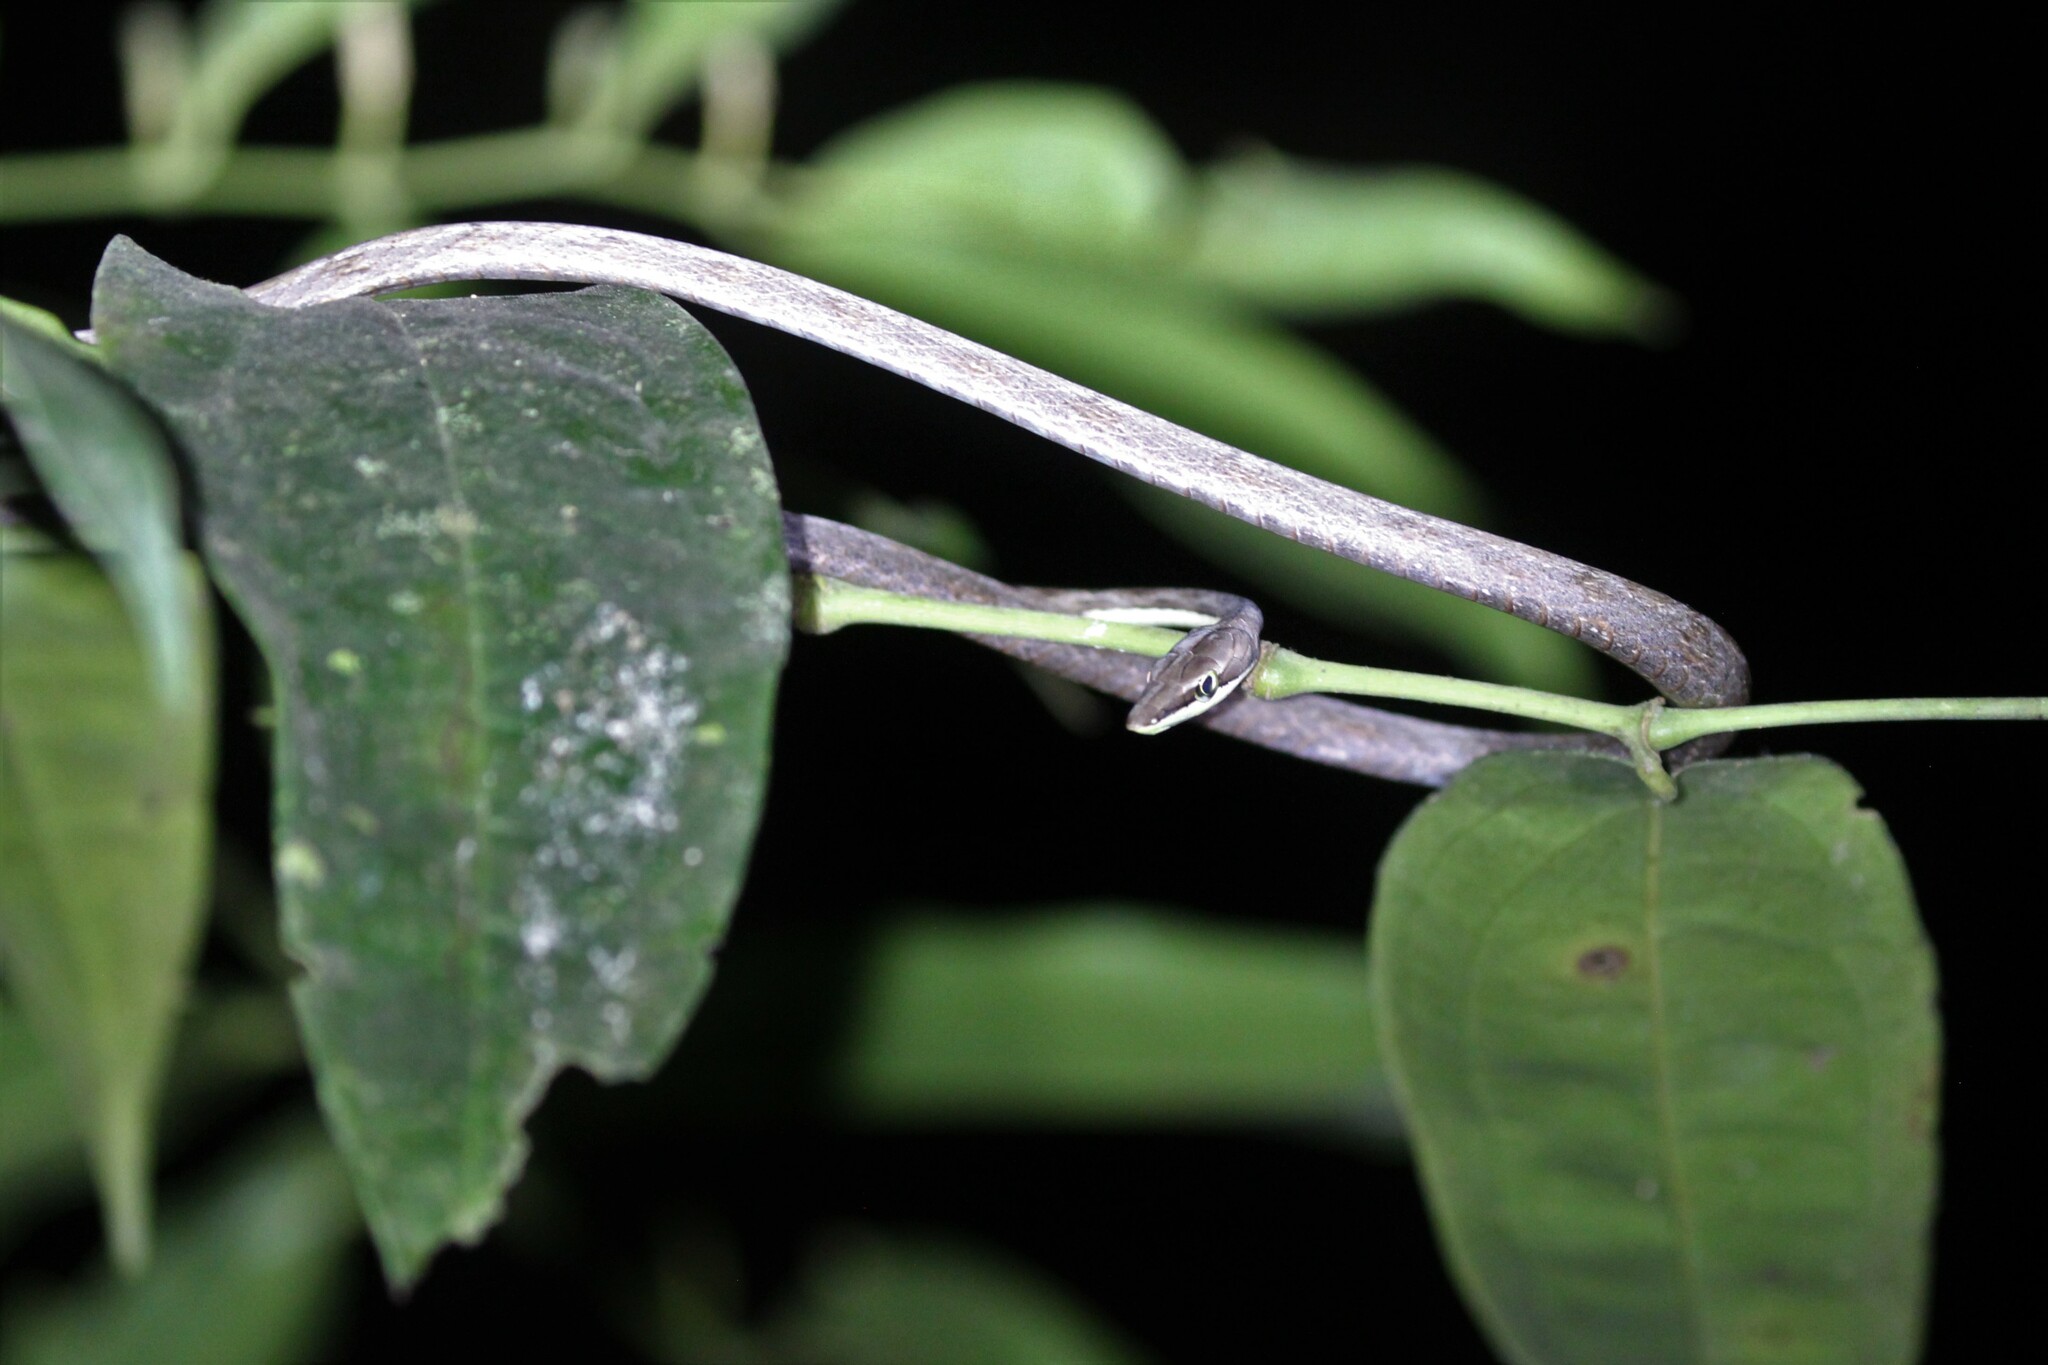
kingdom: Animalia
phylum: Chordata
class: Squamata
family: Colubridae
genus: Oxybelis
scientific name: Oxybelis koehleri
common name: Köhler’s vine snake
